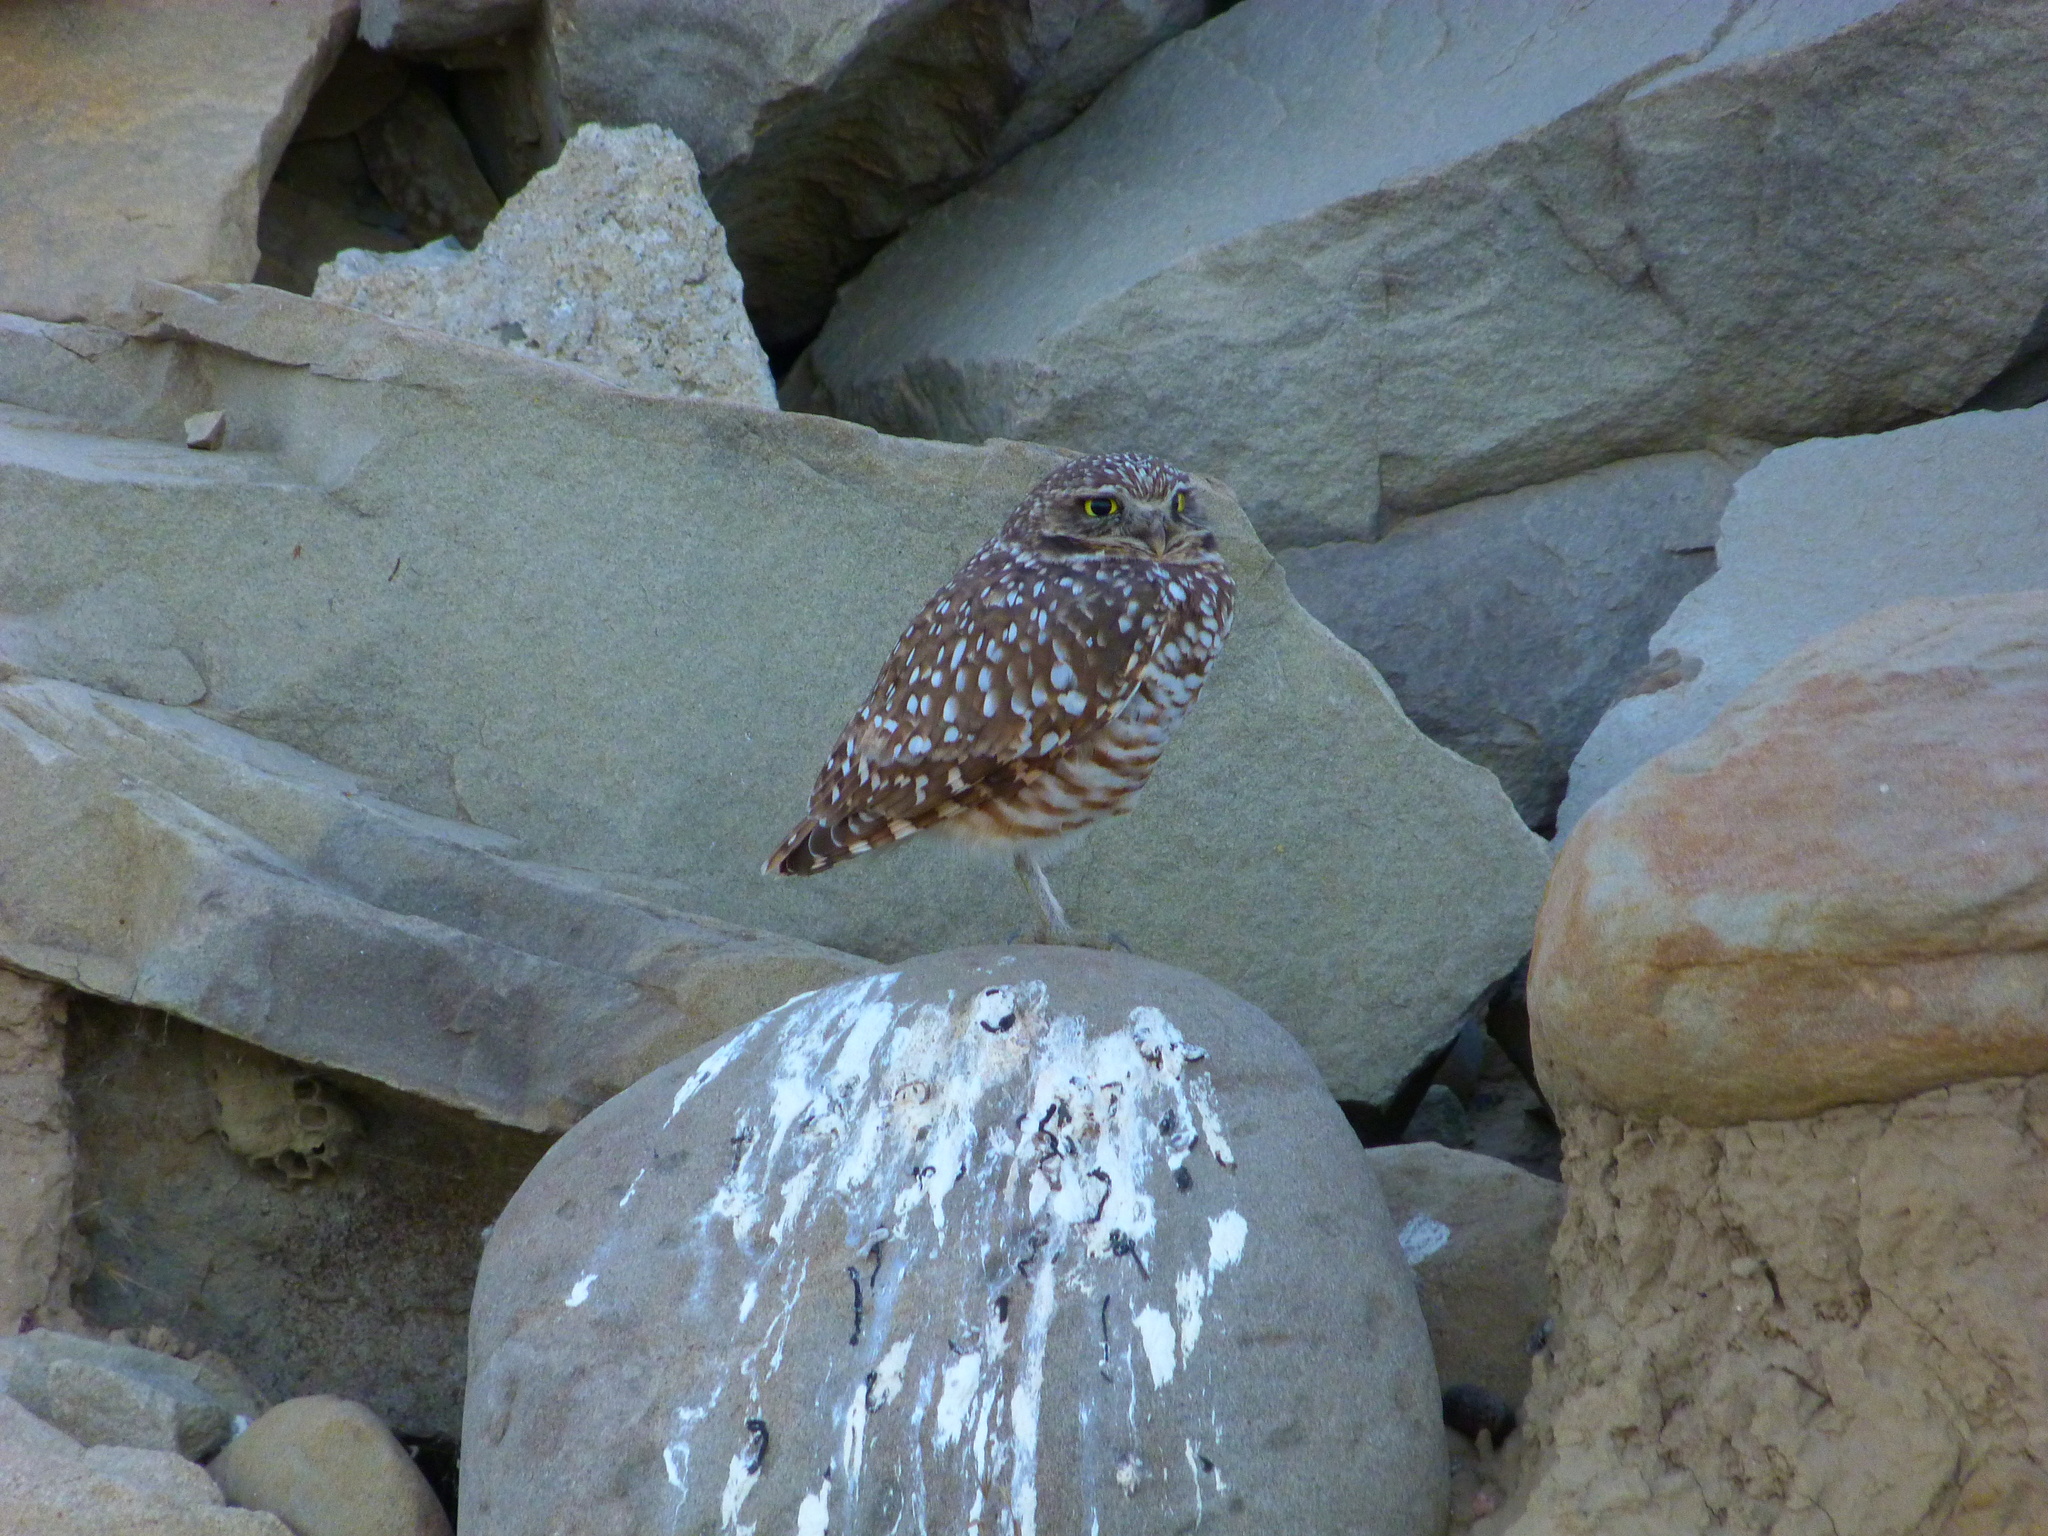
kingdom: Animalia
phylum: Chordata
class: Aves
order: Strigiformes
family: Strigidae
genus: Athene
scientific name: Athene cunicularia
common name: Burrowing owl
